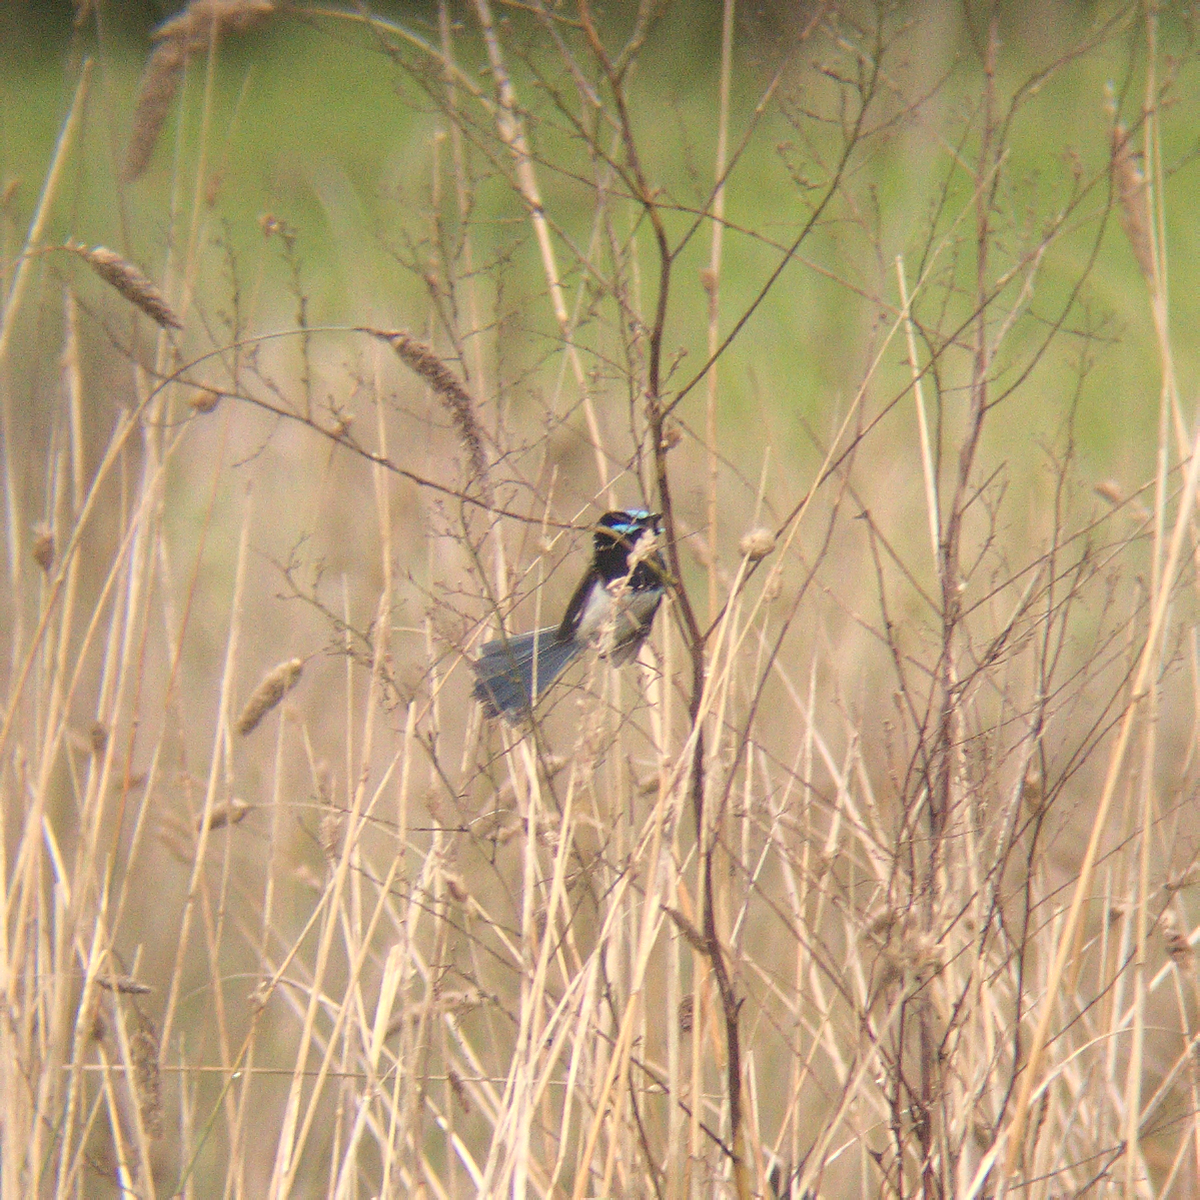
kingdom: Animalia
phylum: Chordata
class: Aves
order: Passeriformes
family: Maluridae
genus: Malurus
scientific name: Malurus cyaneus
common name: Superb fairywren
